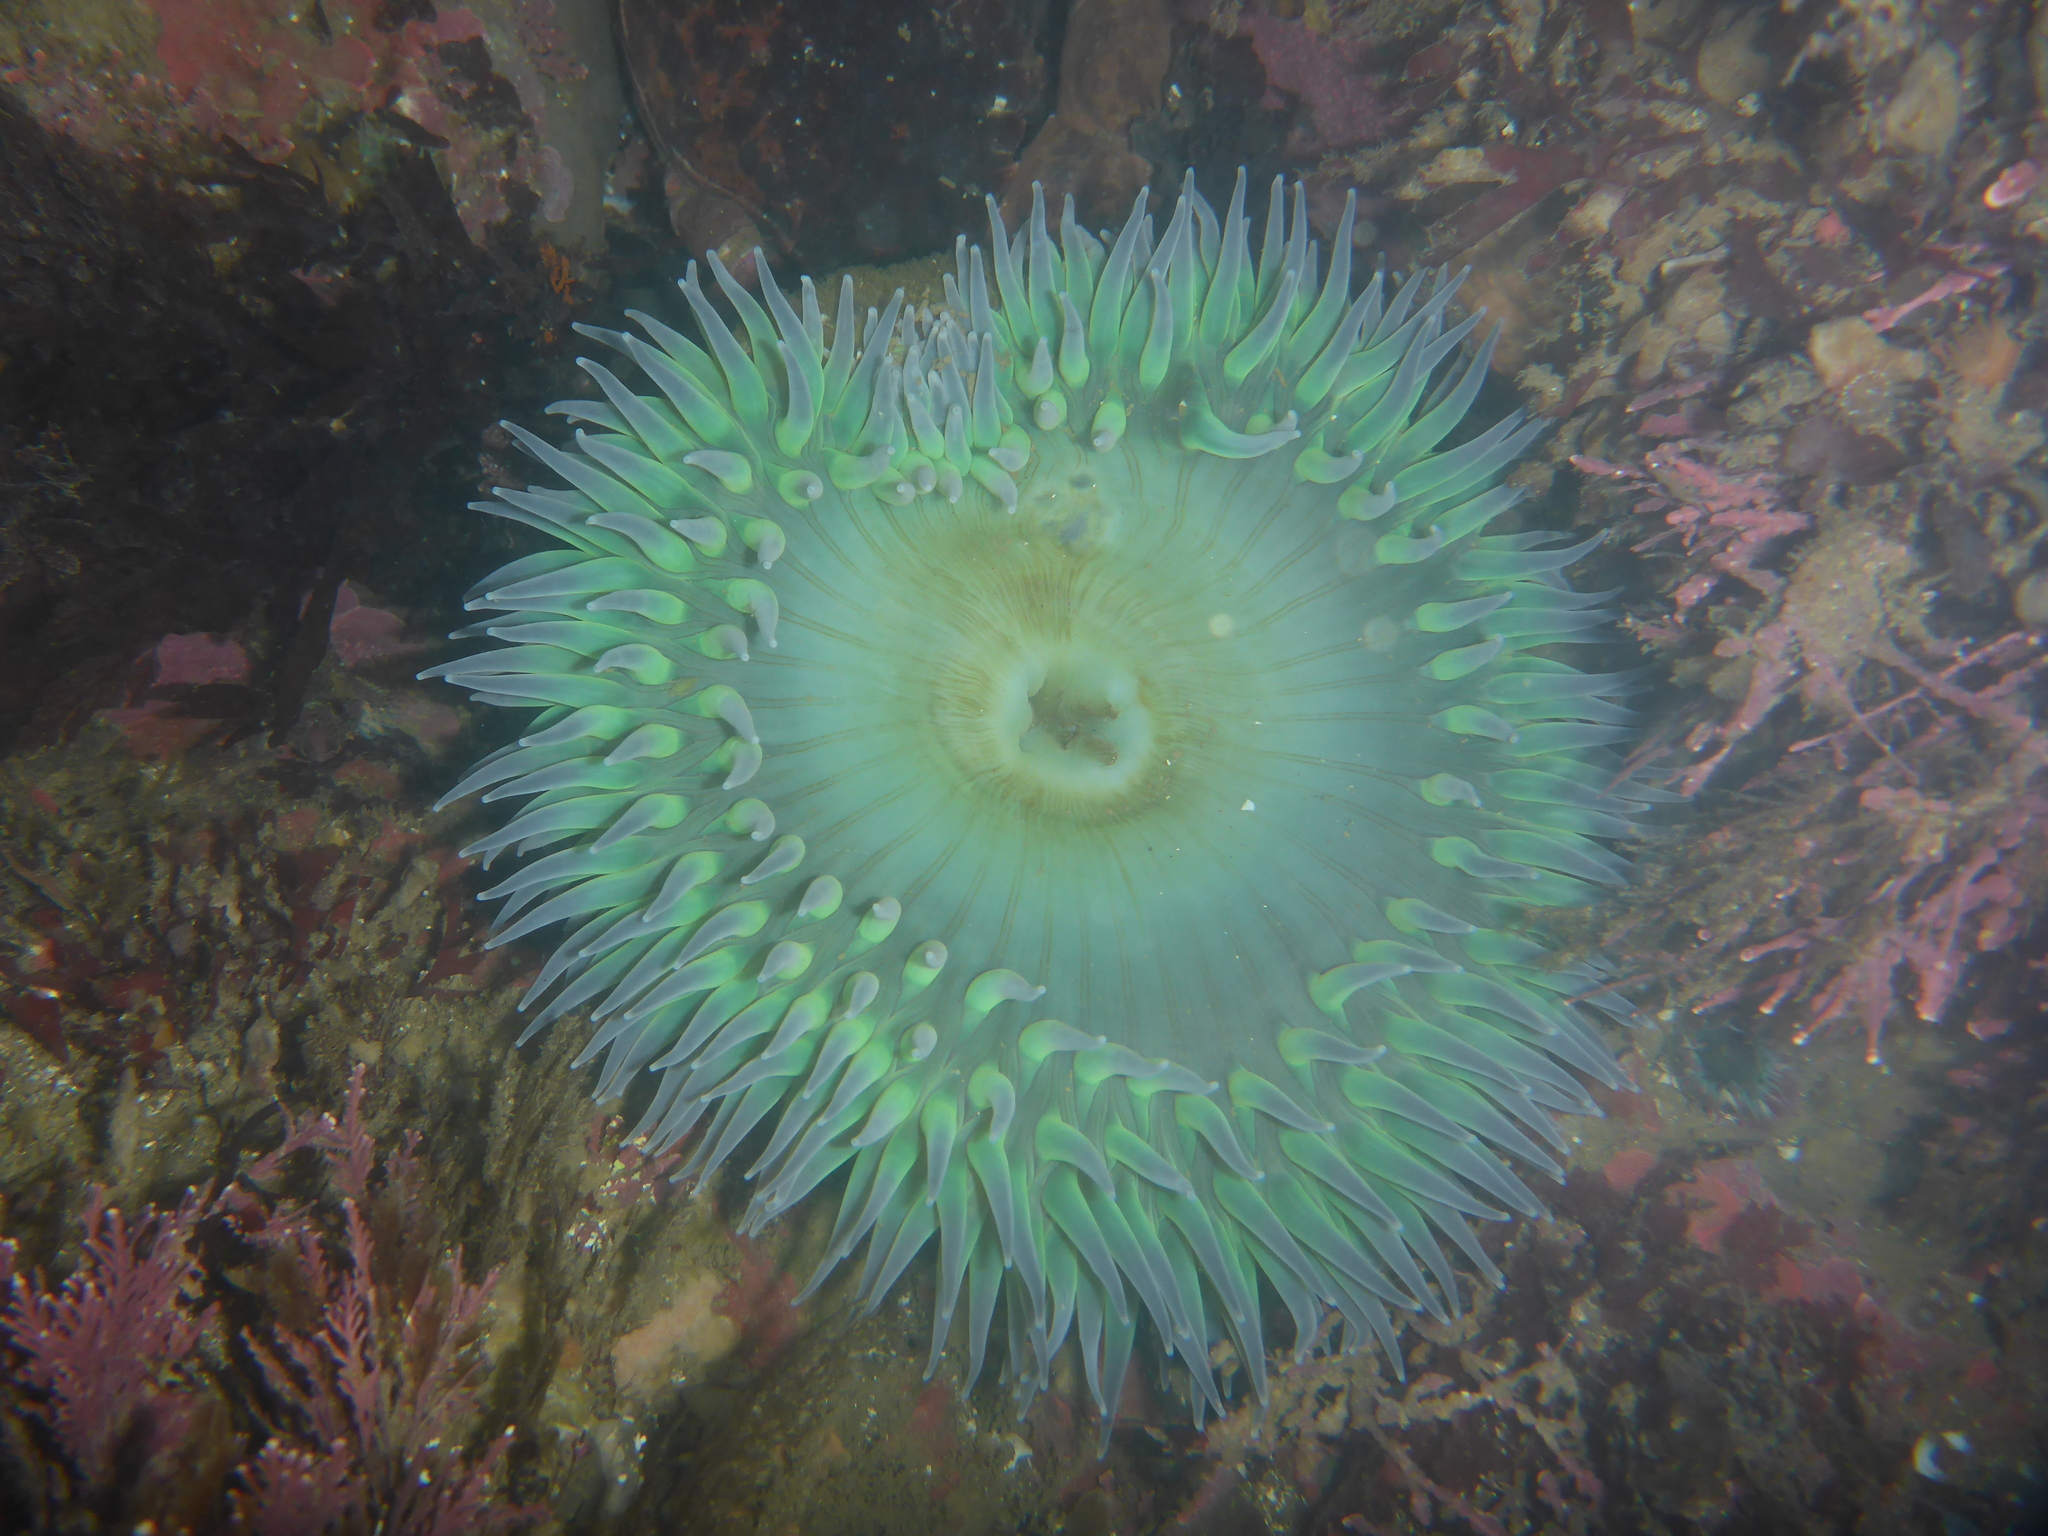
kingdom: Animalia
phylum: Cnidaria
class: Anthozoa
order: Actiniaria
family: Actiniidae
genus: Anthopleura
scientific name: Anthopleura xanthogrammica
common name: Giant green anemone
